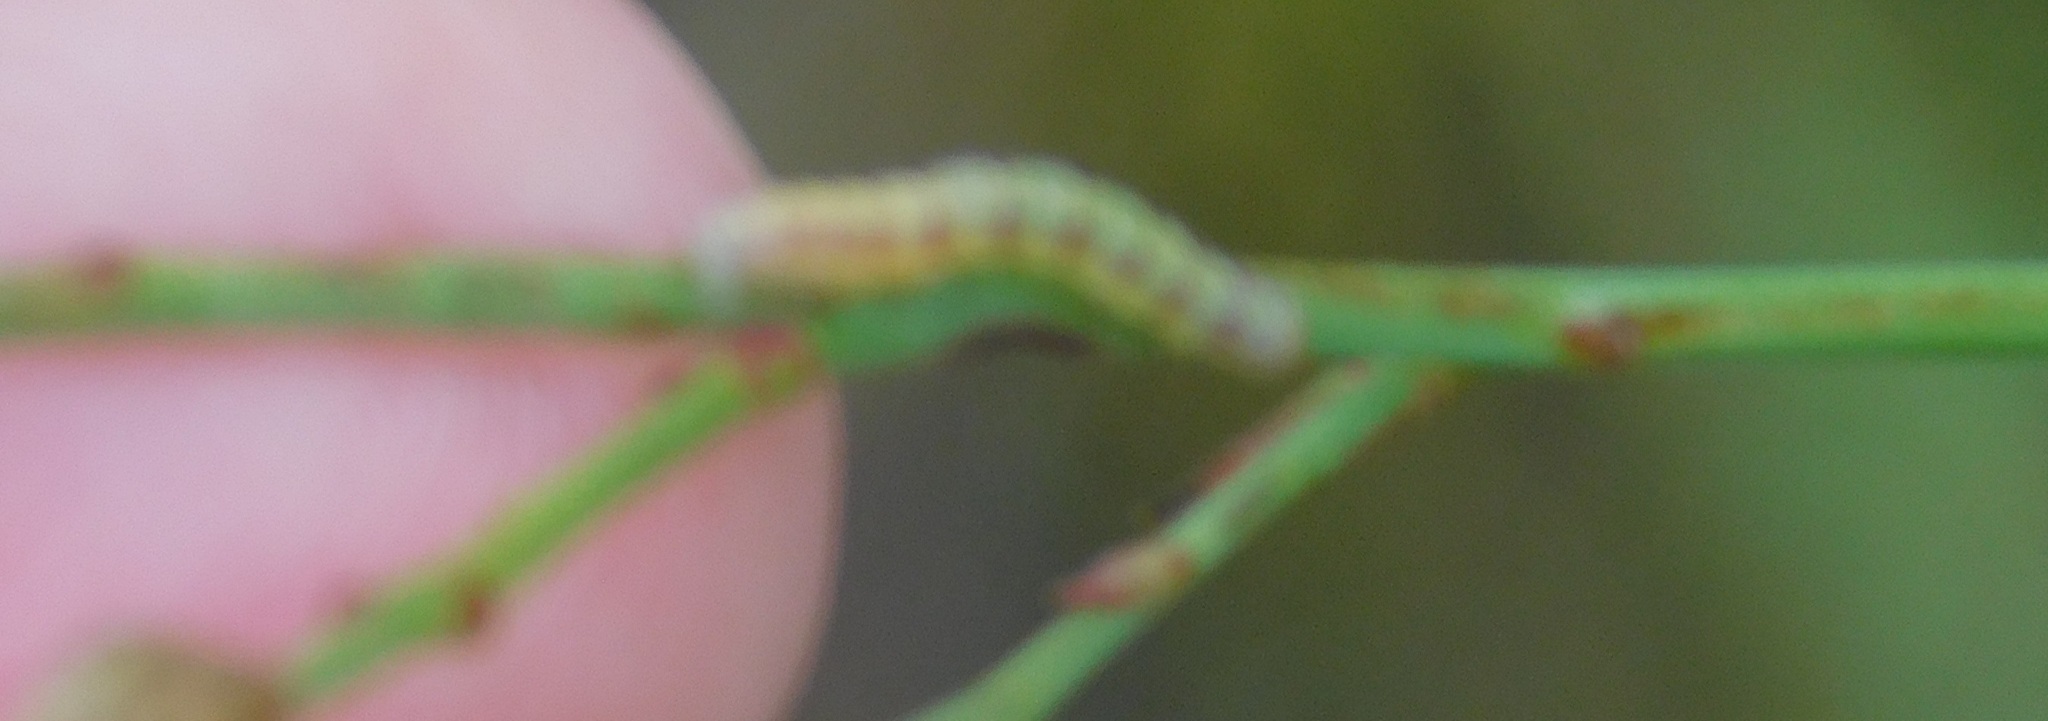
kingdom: Animalia
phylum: Arthropoda
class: Insecta
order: Lepidoptera
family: Noctuidae
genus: Schinia
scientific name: Schinia gaurae
